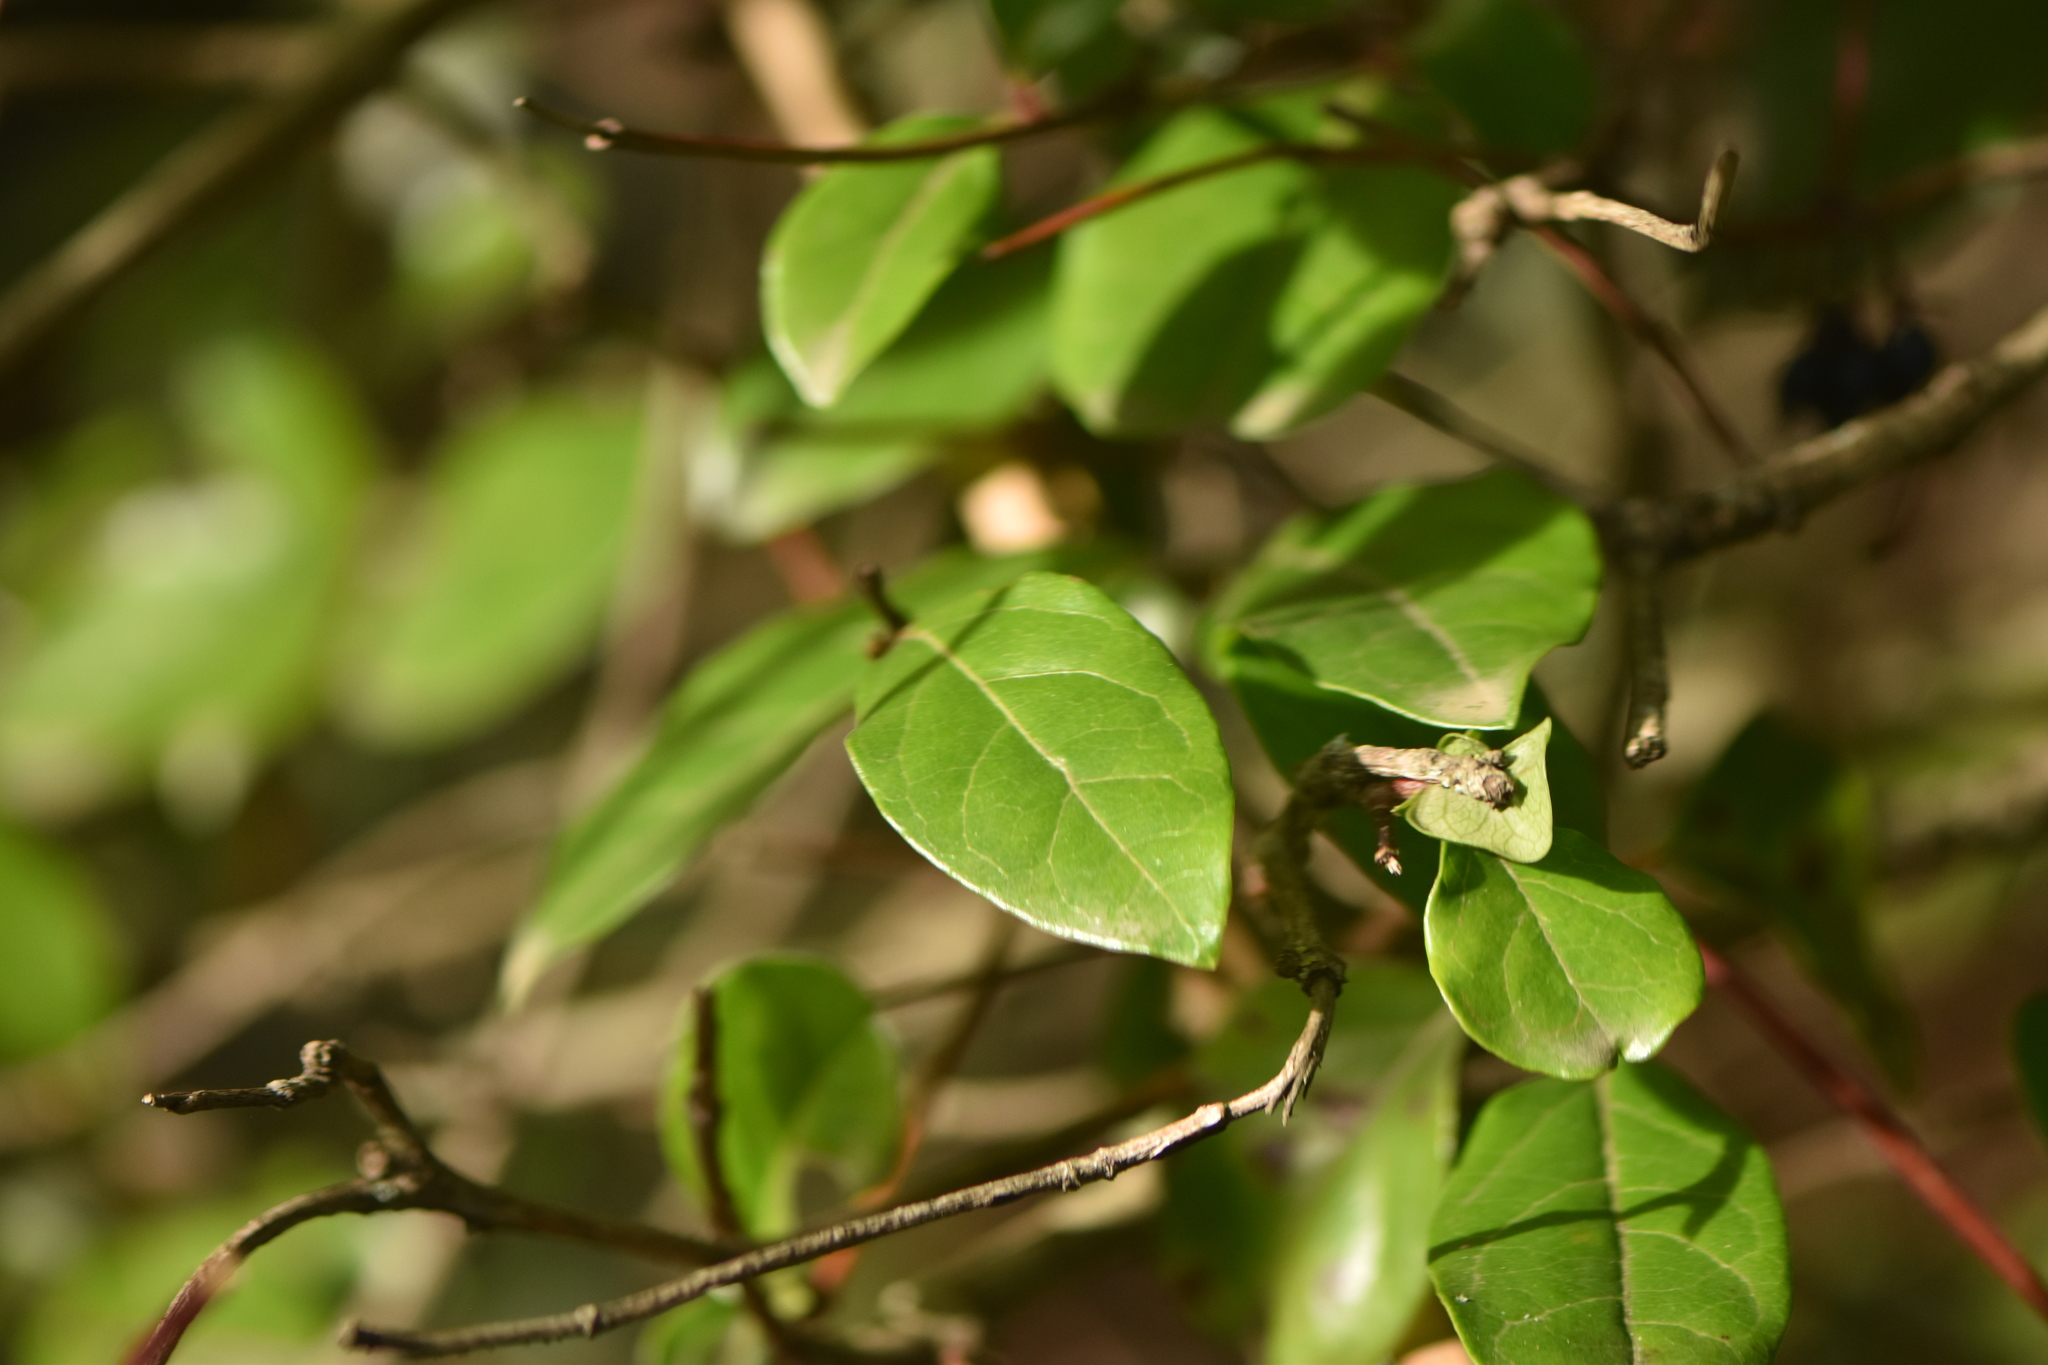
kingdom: Plantae
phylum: Tracheophyta
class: Magnoliopsida
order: Dipsacales
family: Viburnaceae
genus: Viburnum
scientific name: Viburnum tinus
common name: Laurustinus
